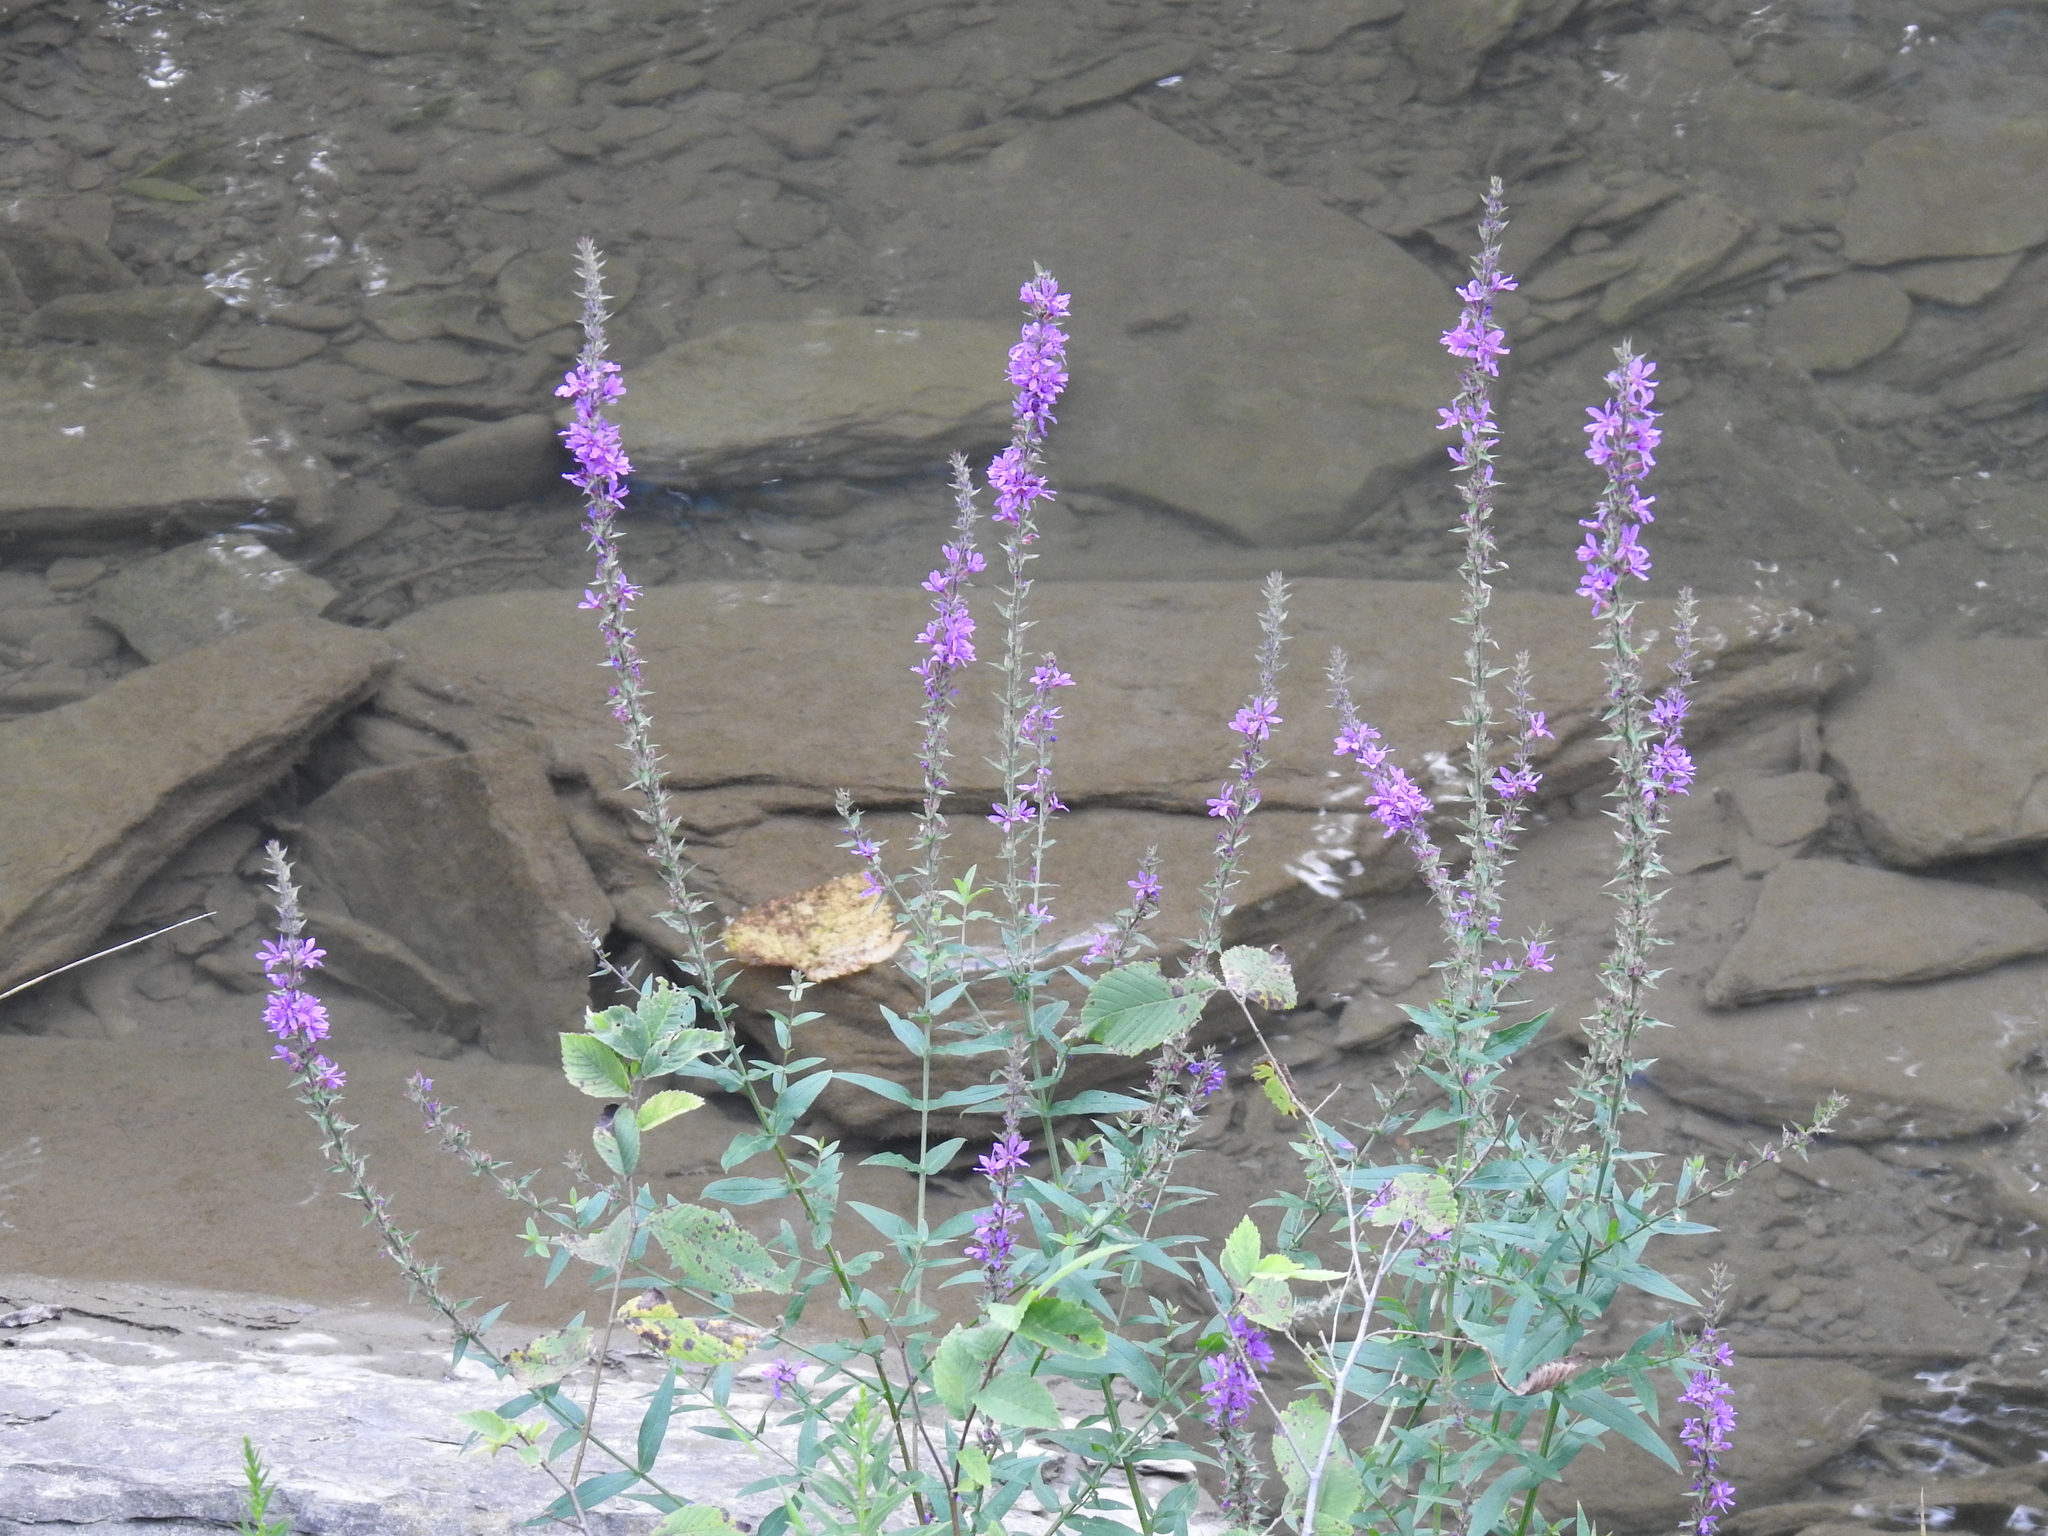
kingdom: Plantae
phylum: Tracheophyta
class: Magnoliopsida
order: Myrtales
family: Lythraceae
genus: Lythrum
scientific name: Lythrum salicaria
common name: Purple loosestrife
